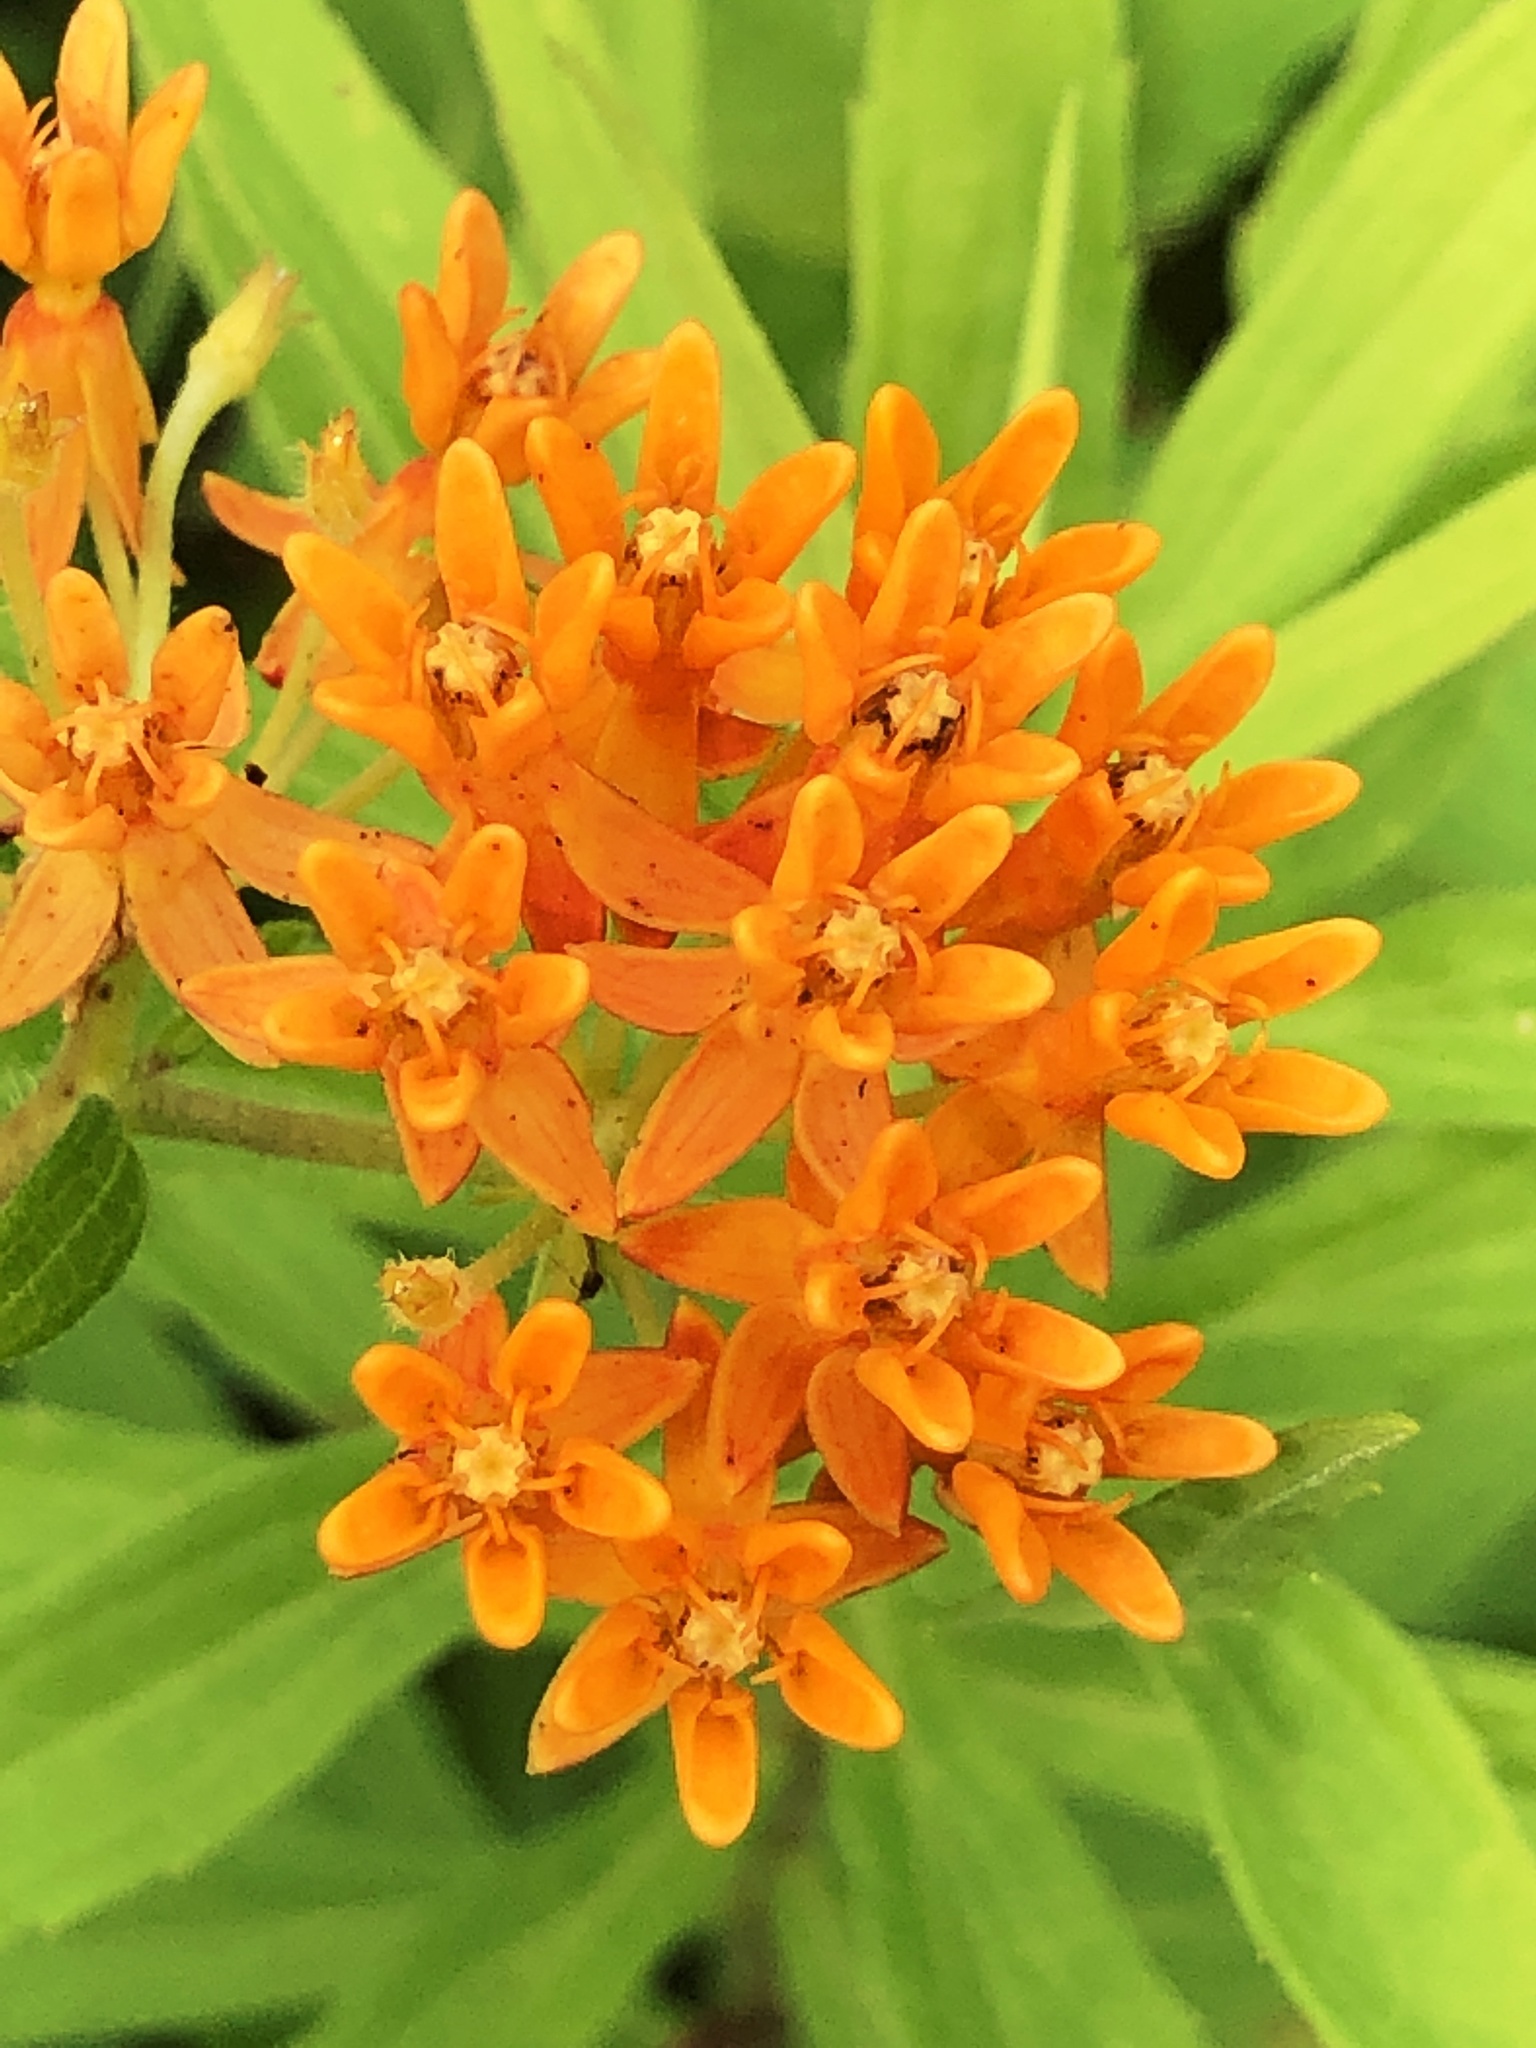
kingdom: Plantae
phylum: Tracheophyta
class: Magnoliopsida
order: Gentianales
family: Apocynaceae
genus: Asclepias
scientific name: Asclepias tuberosa
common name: Butterfly milkweed
